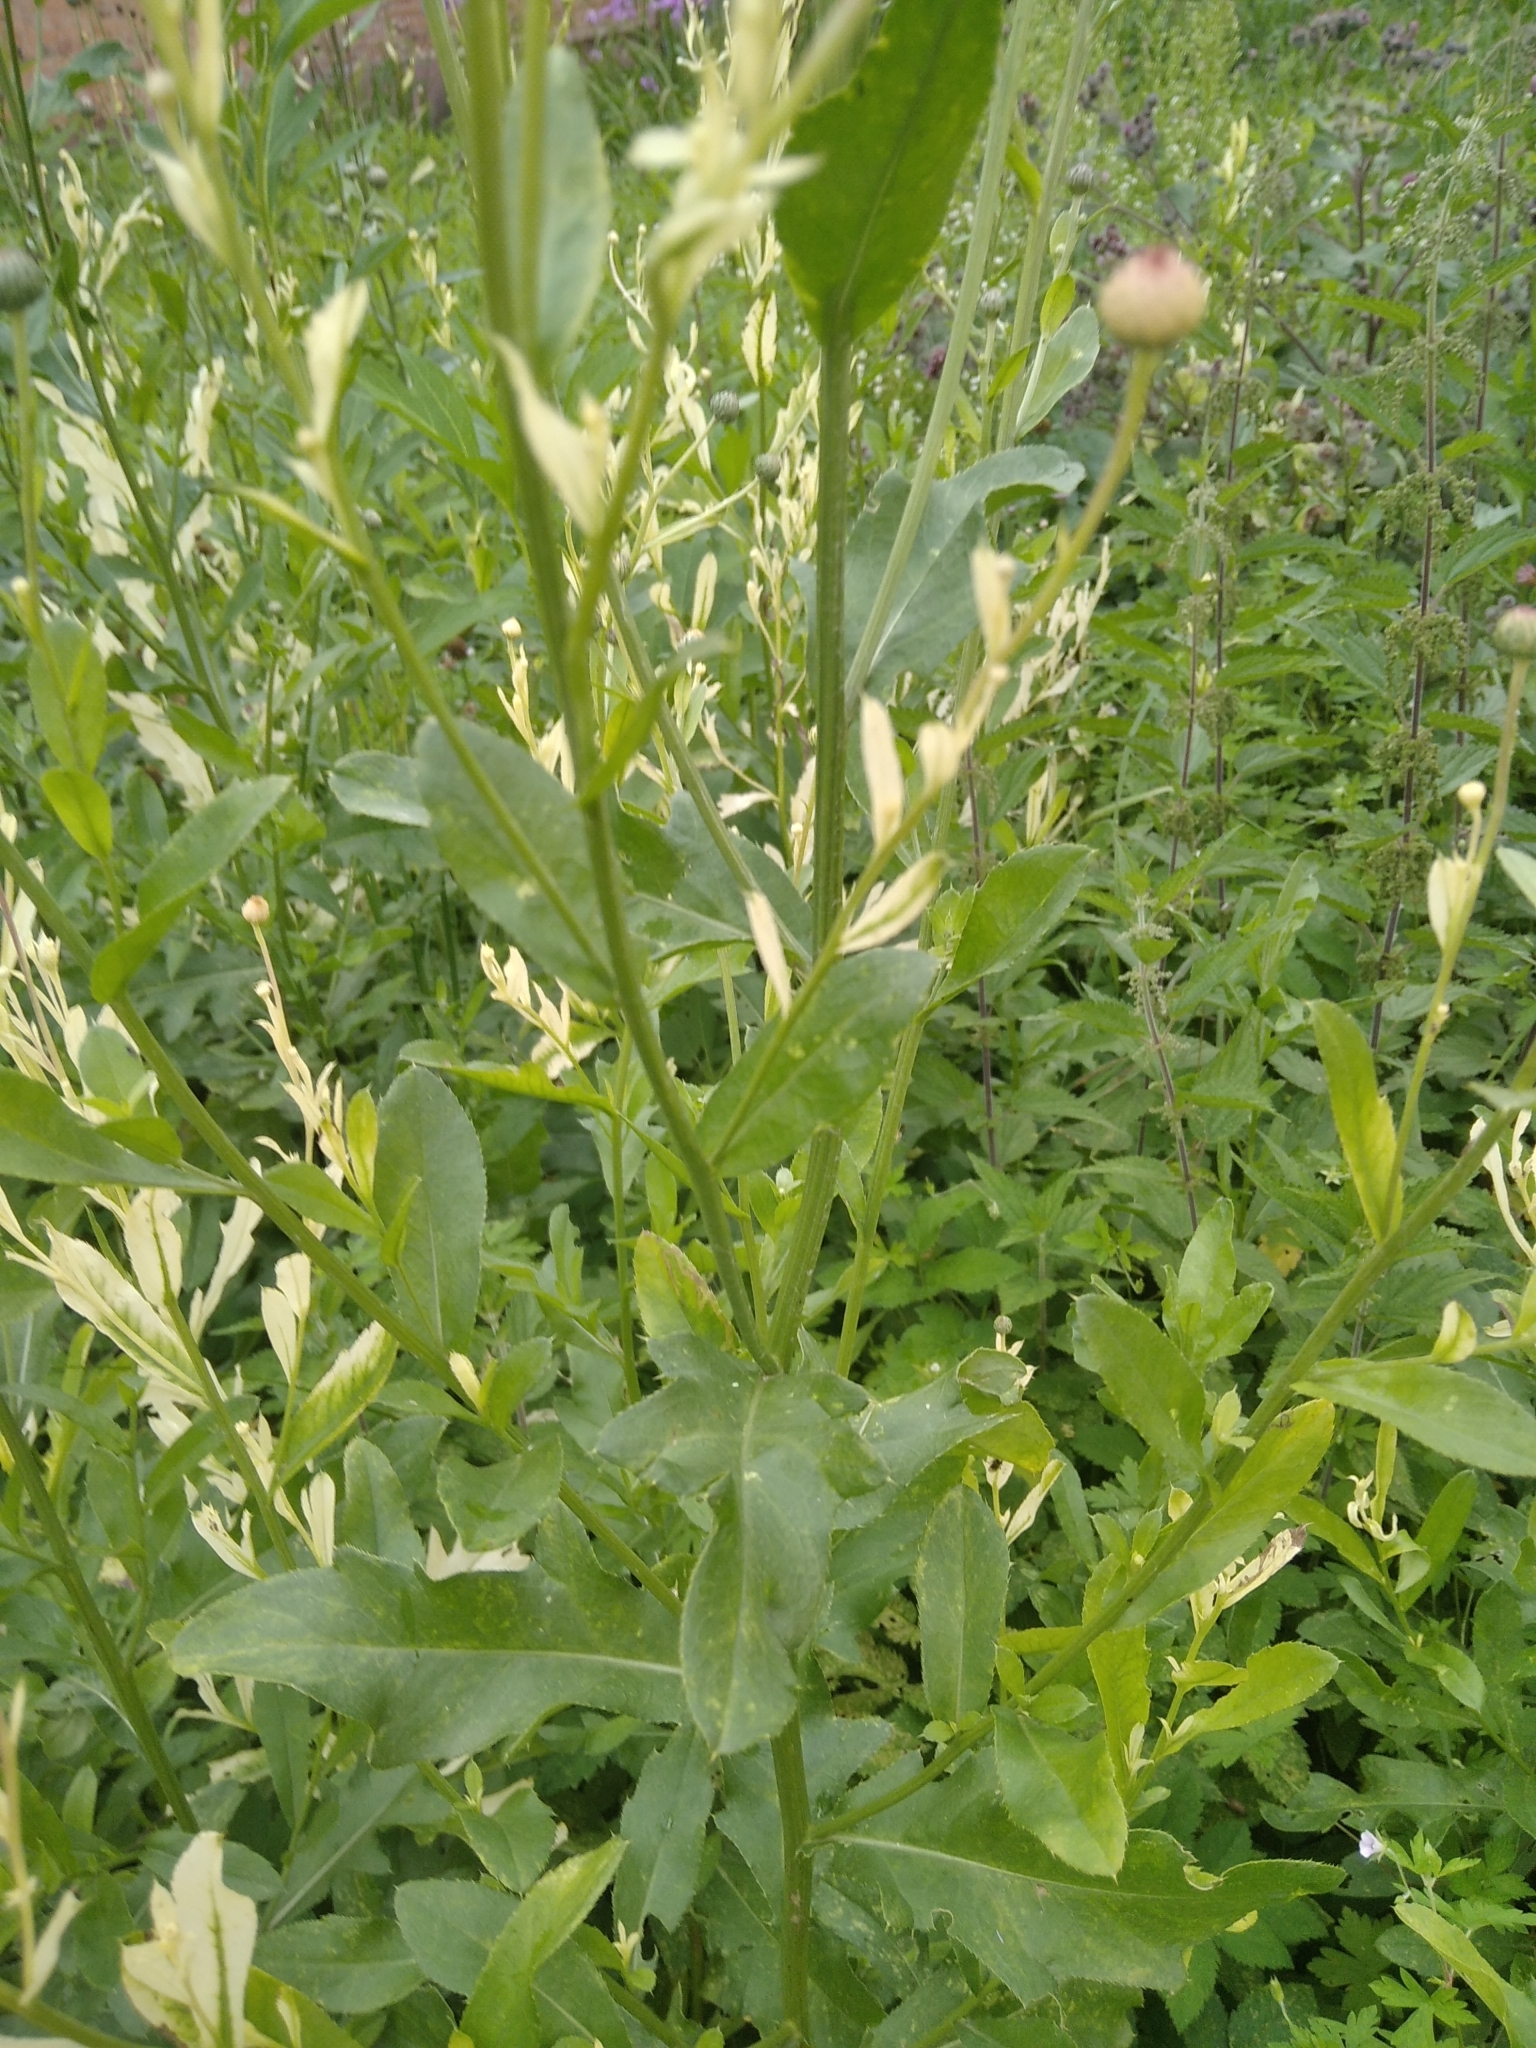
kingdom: Plantae
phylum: Tracheophyta
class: Magnoliopsida
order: Asterales
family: Asteraceae
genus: Cirsium
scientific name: Cirsium arvense
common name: Creeping thistle
